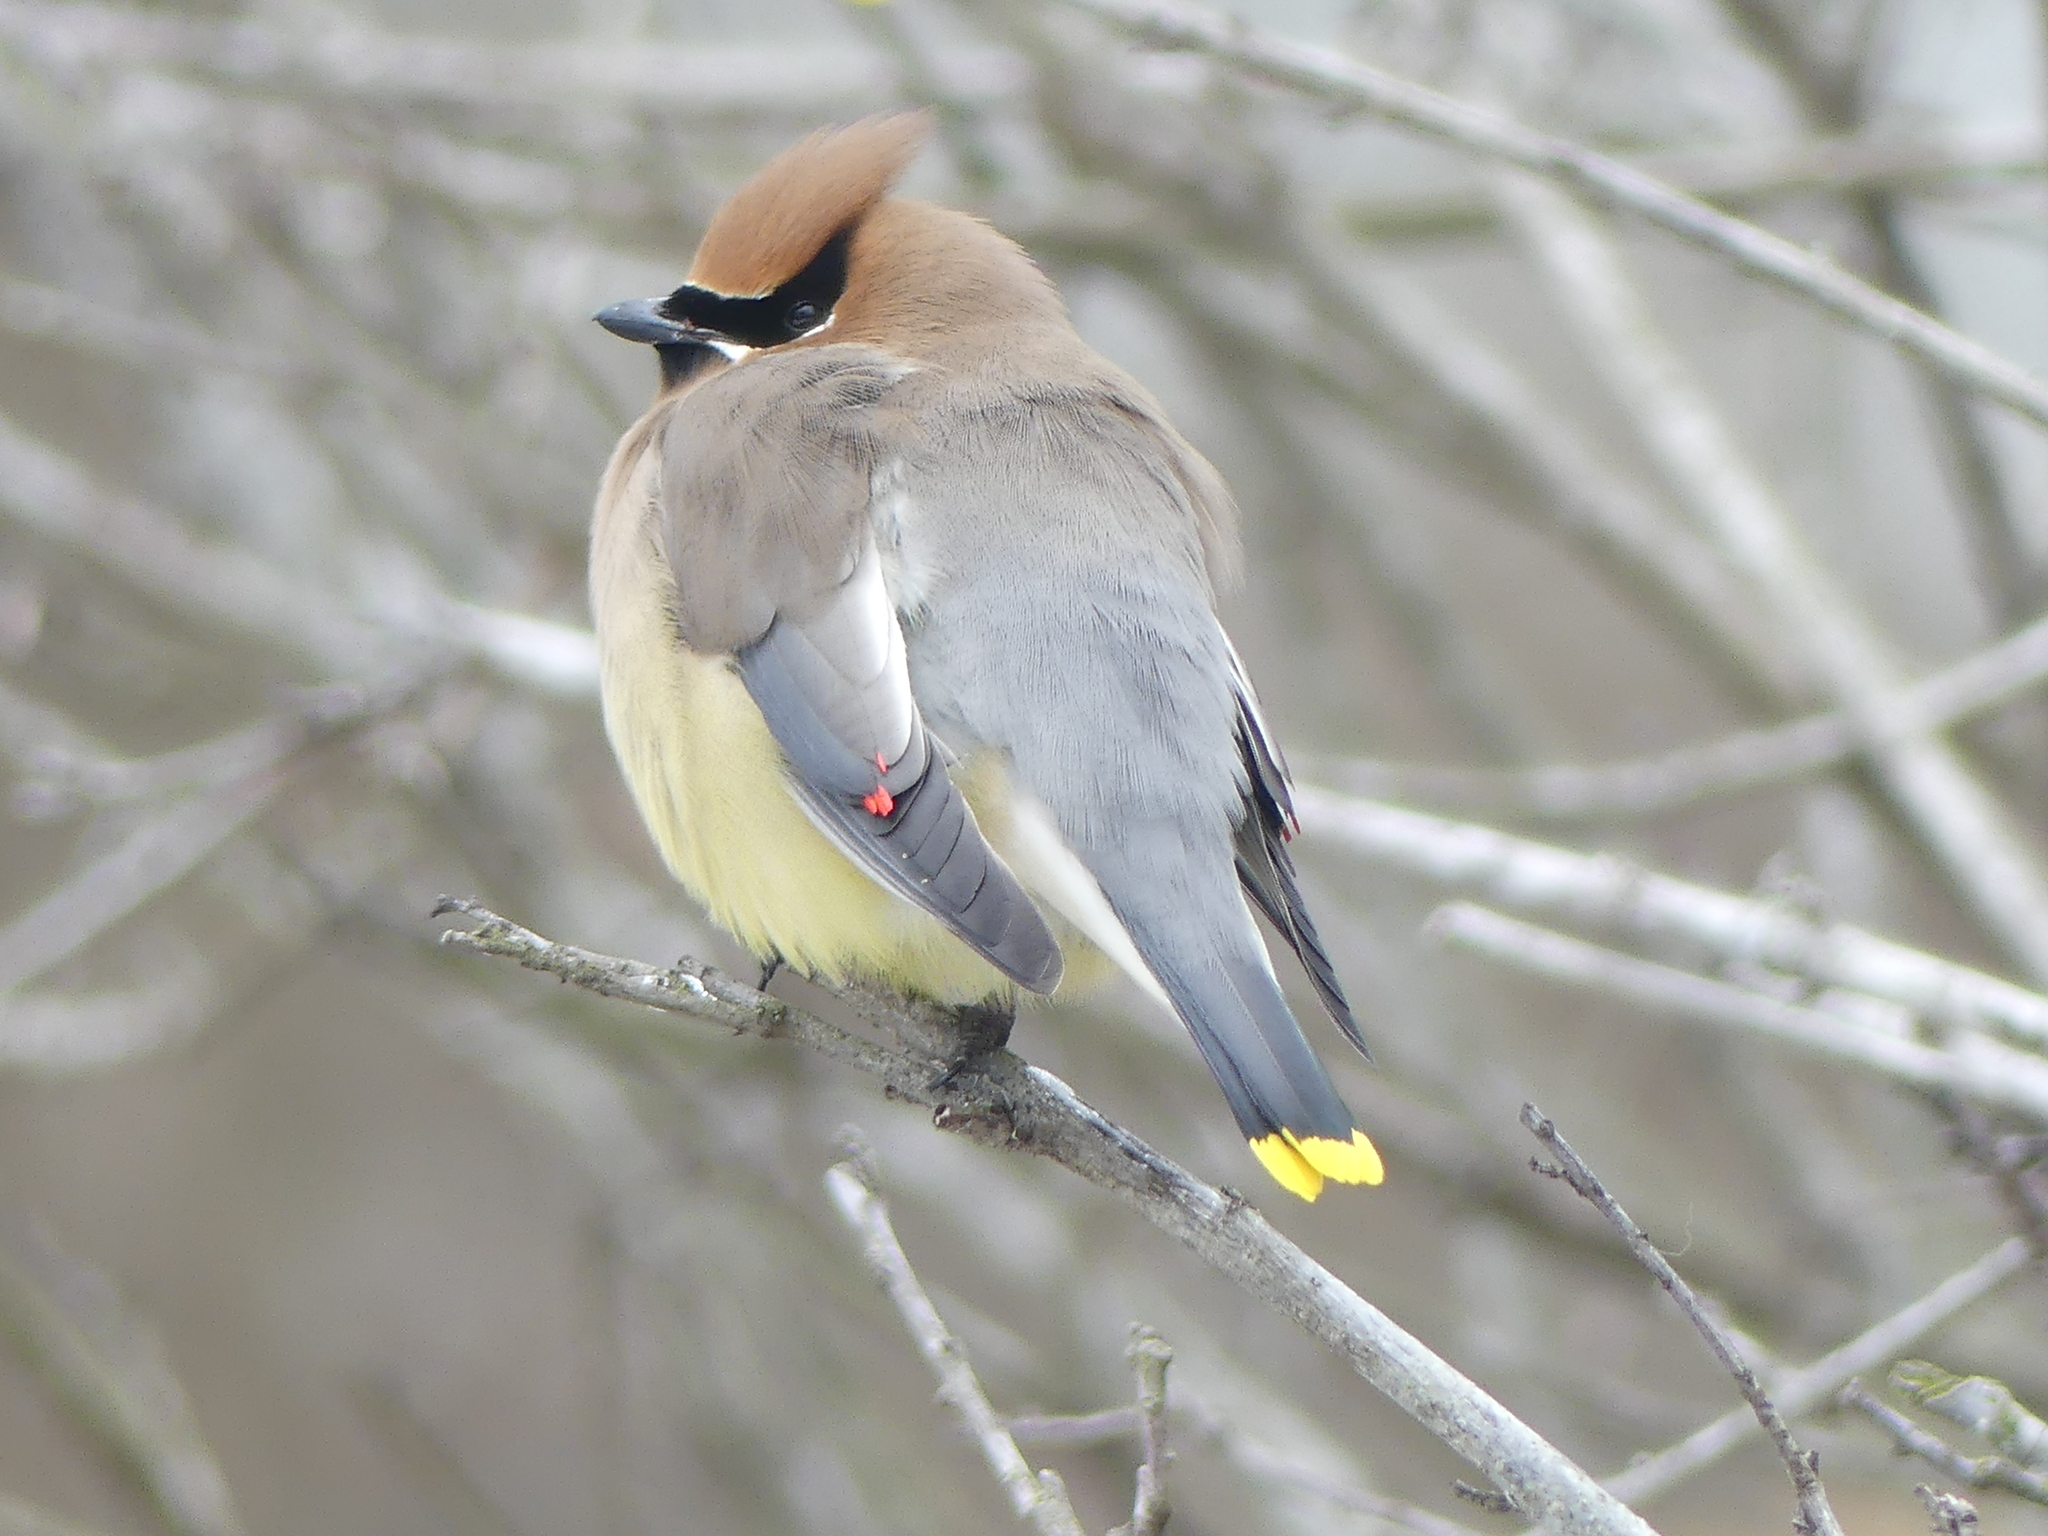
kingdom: Animalia
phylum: Chordata
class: Aves
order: Passeriformes
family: Bombycillidae
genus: Bombycilla
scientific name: Bombycilla cedrorum
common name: Cedar waxwing
